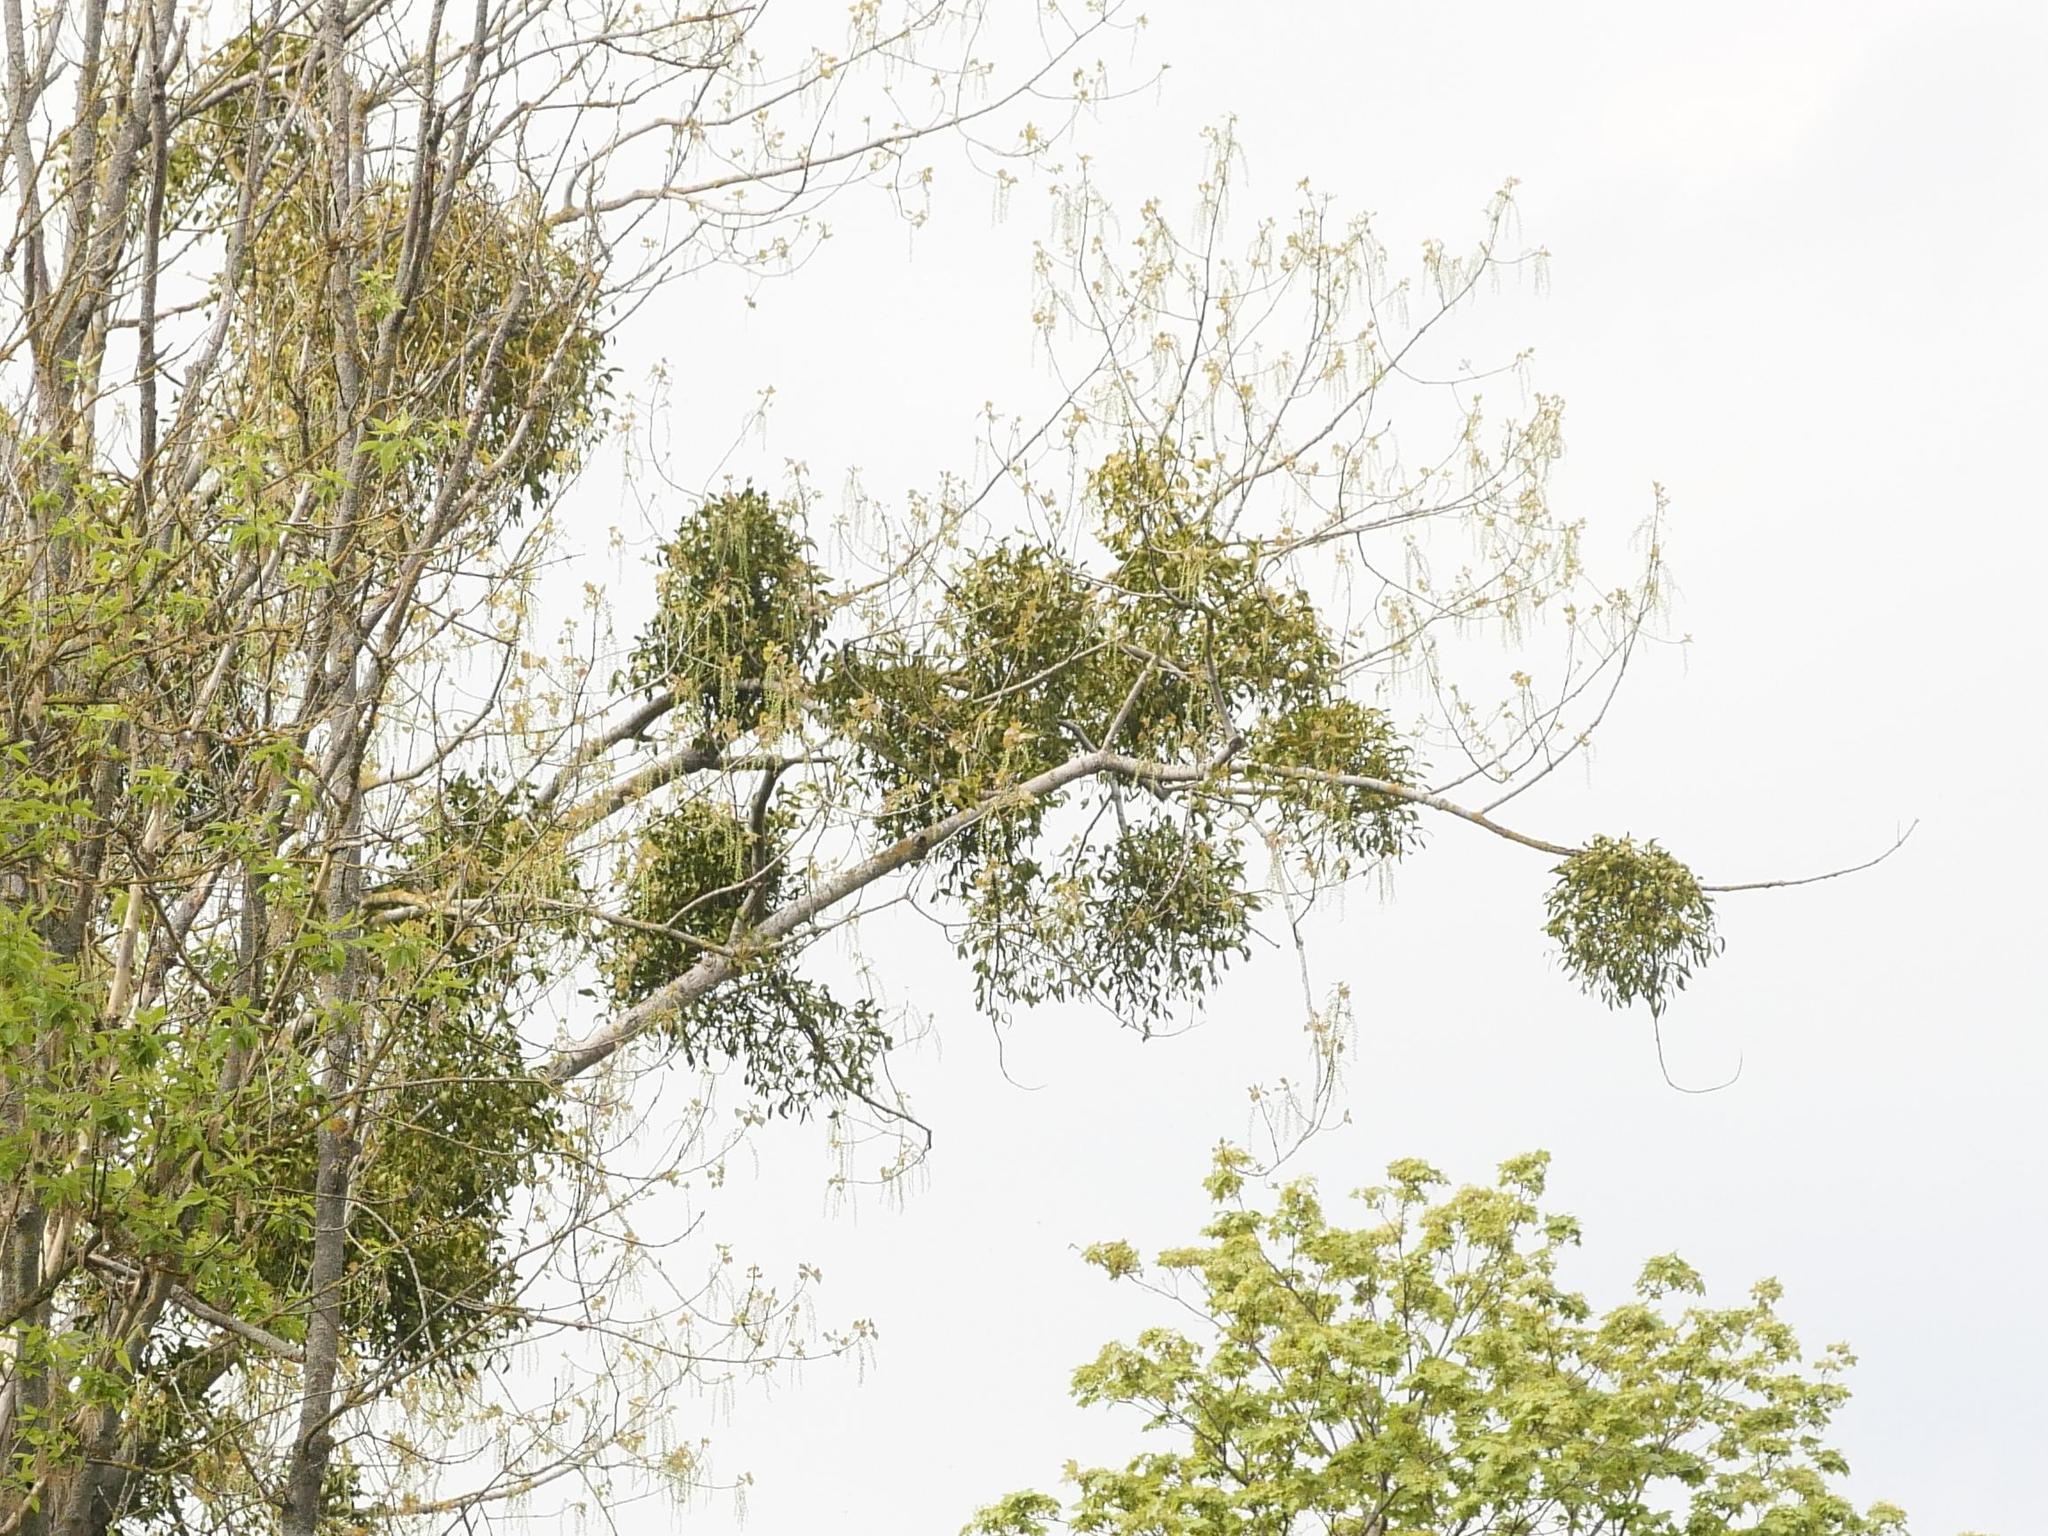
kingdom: Plantae
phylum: Tracheophyta
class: Magnoliopsida
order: Santalales
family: Viscaceae
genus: Viscum
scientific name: Viscum album
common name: Mistletoe
